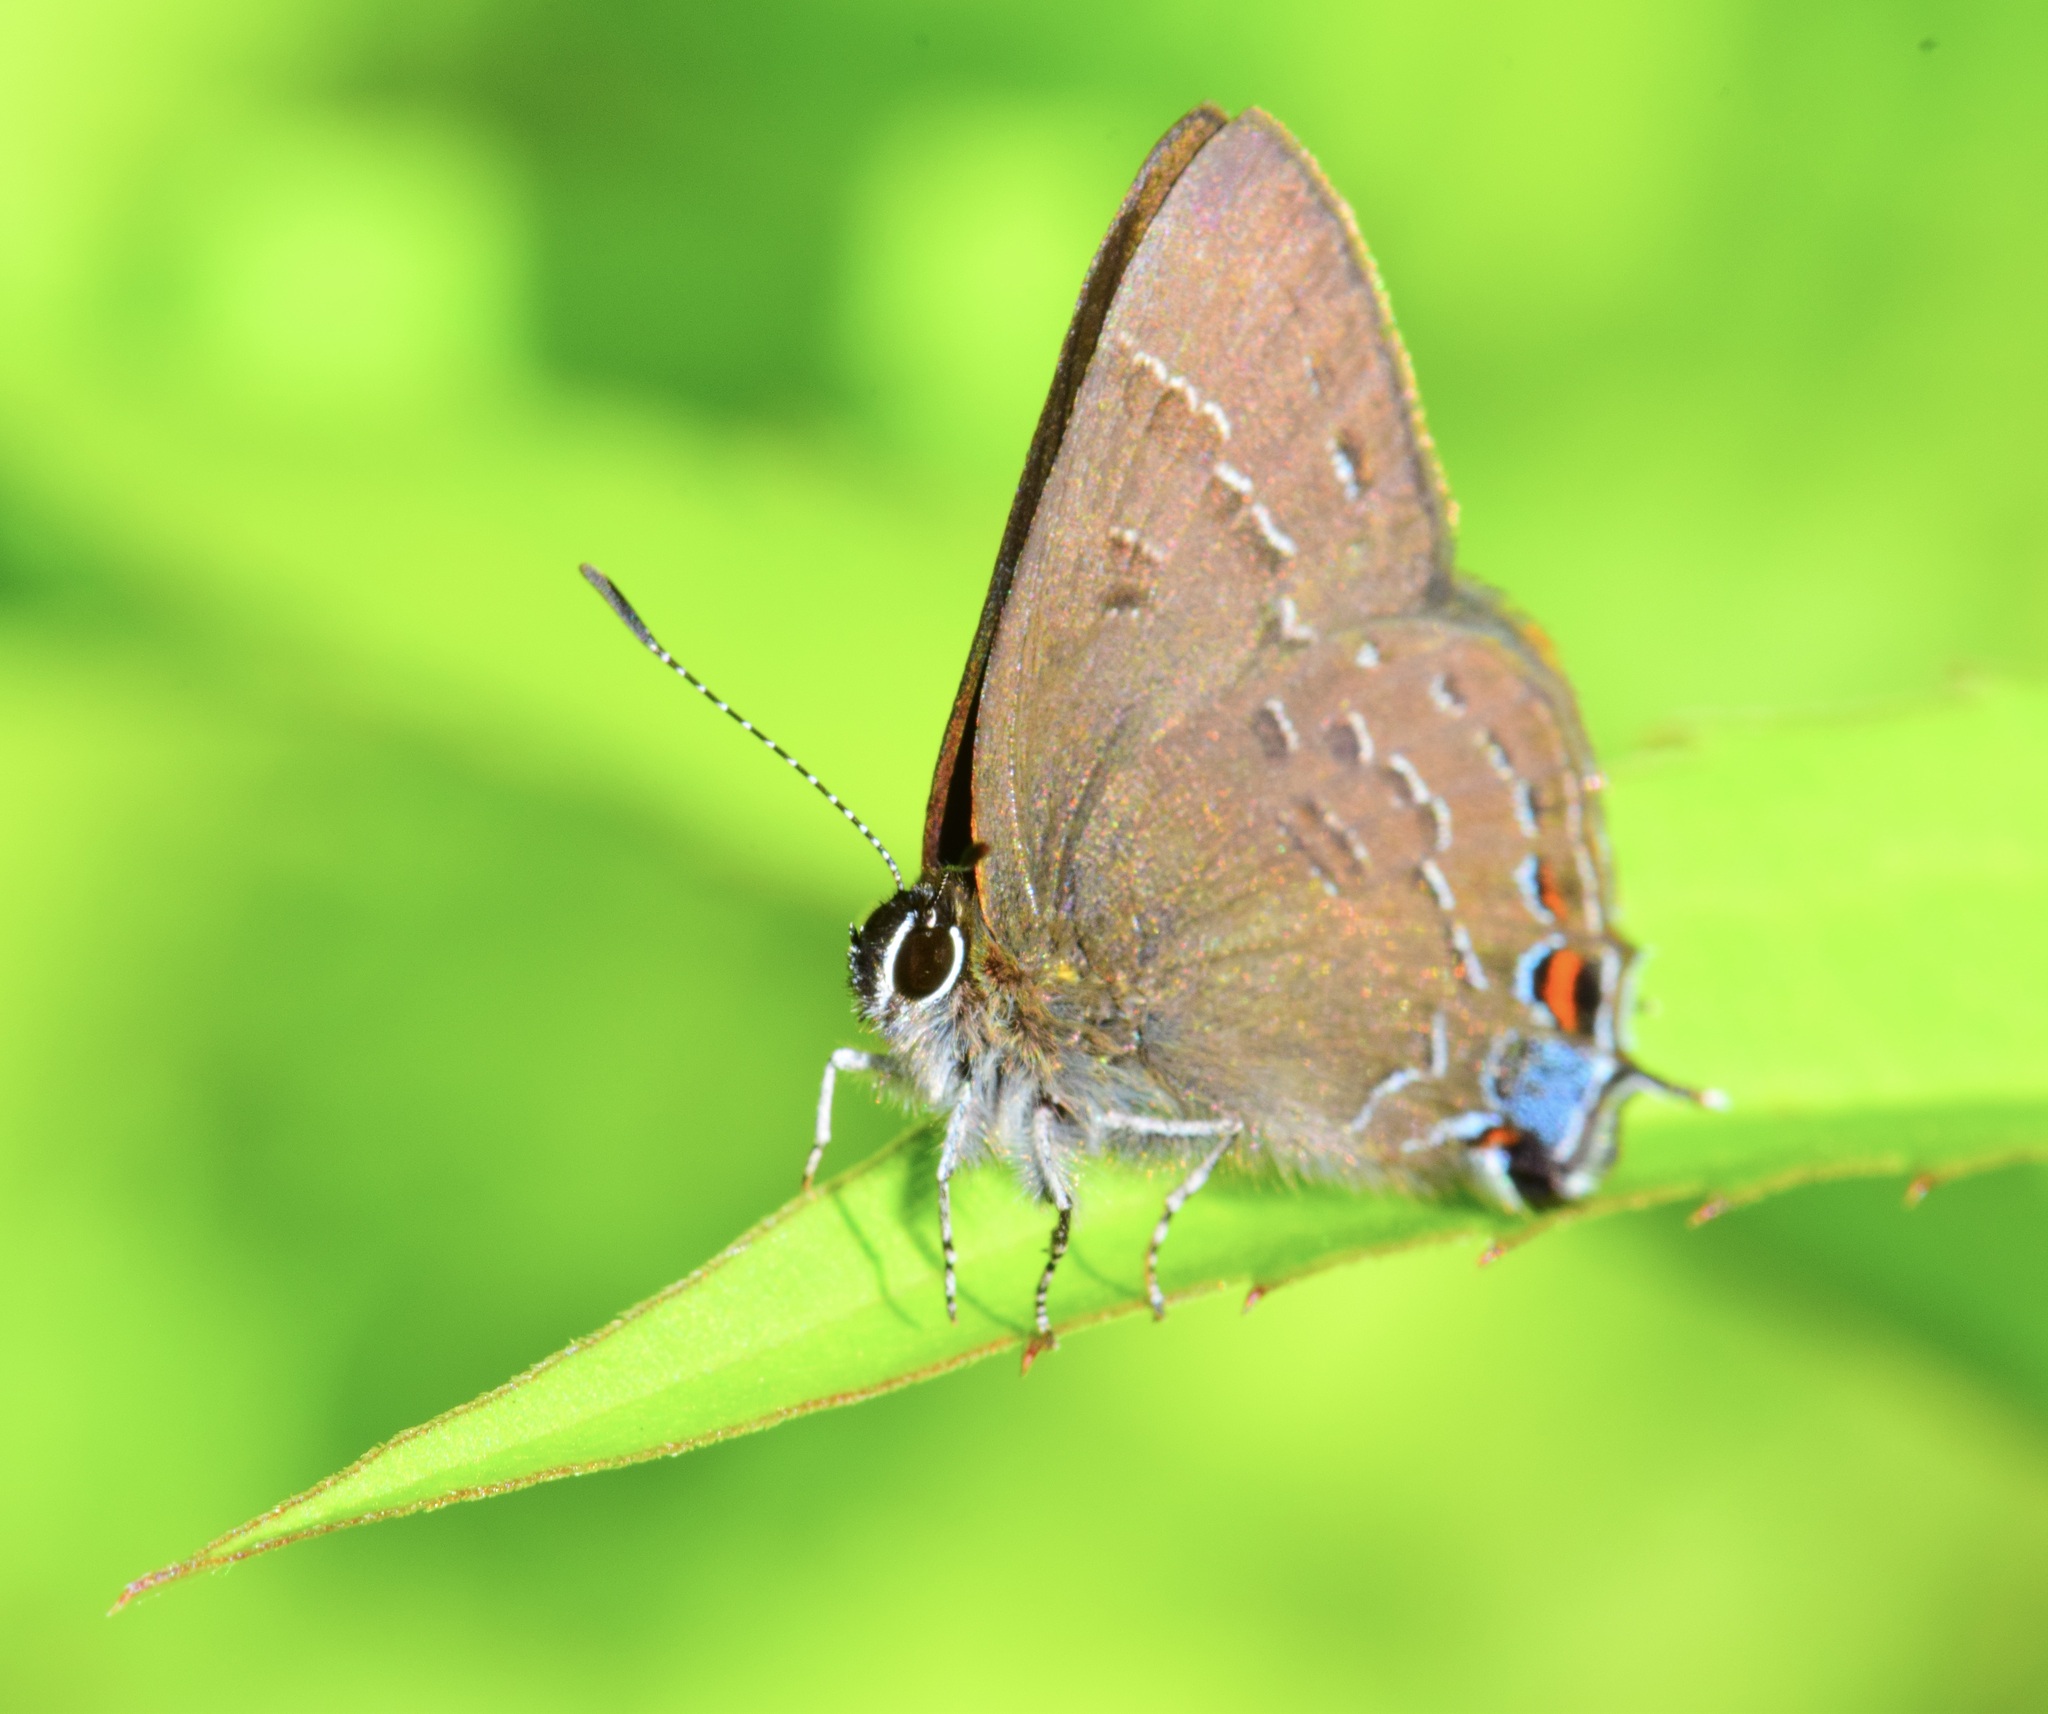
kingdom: Animalia
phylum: Arthropoda
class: Insecta
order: Lepidoptera
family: Lycaenidae
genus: Satyrium
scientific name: Satyrium calanus
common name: Banded hairstreak
